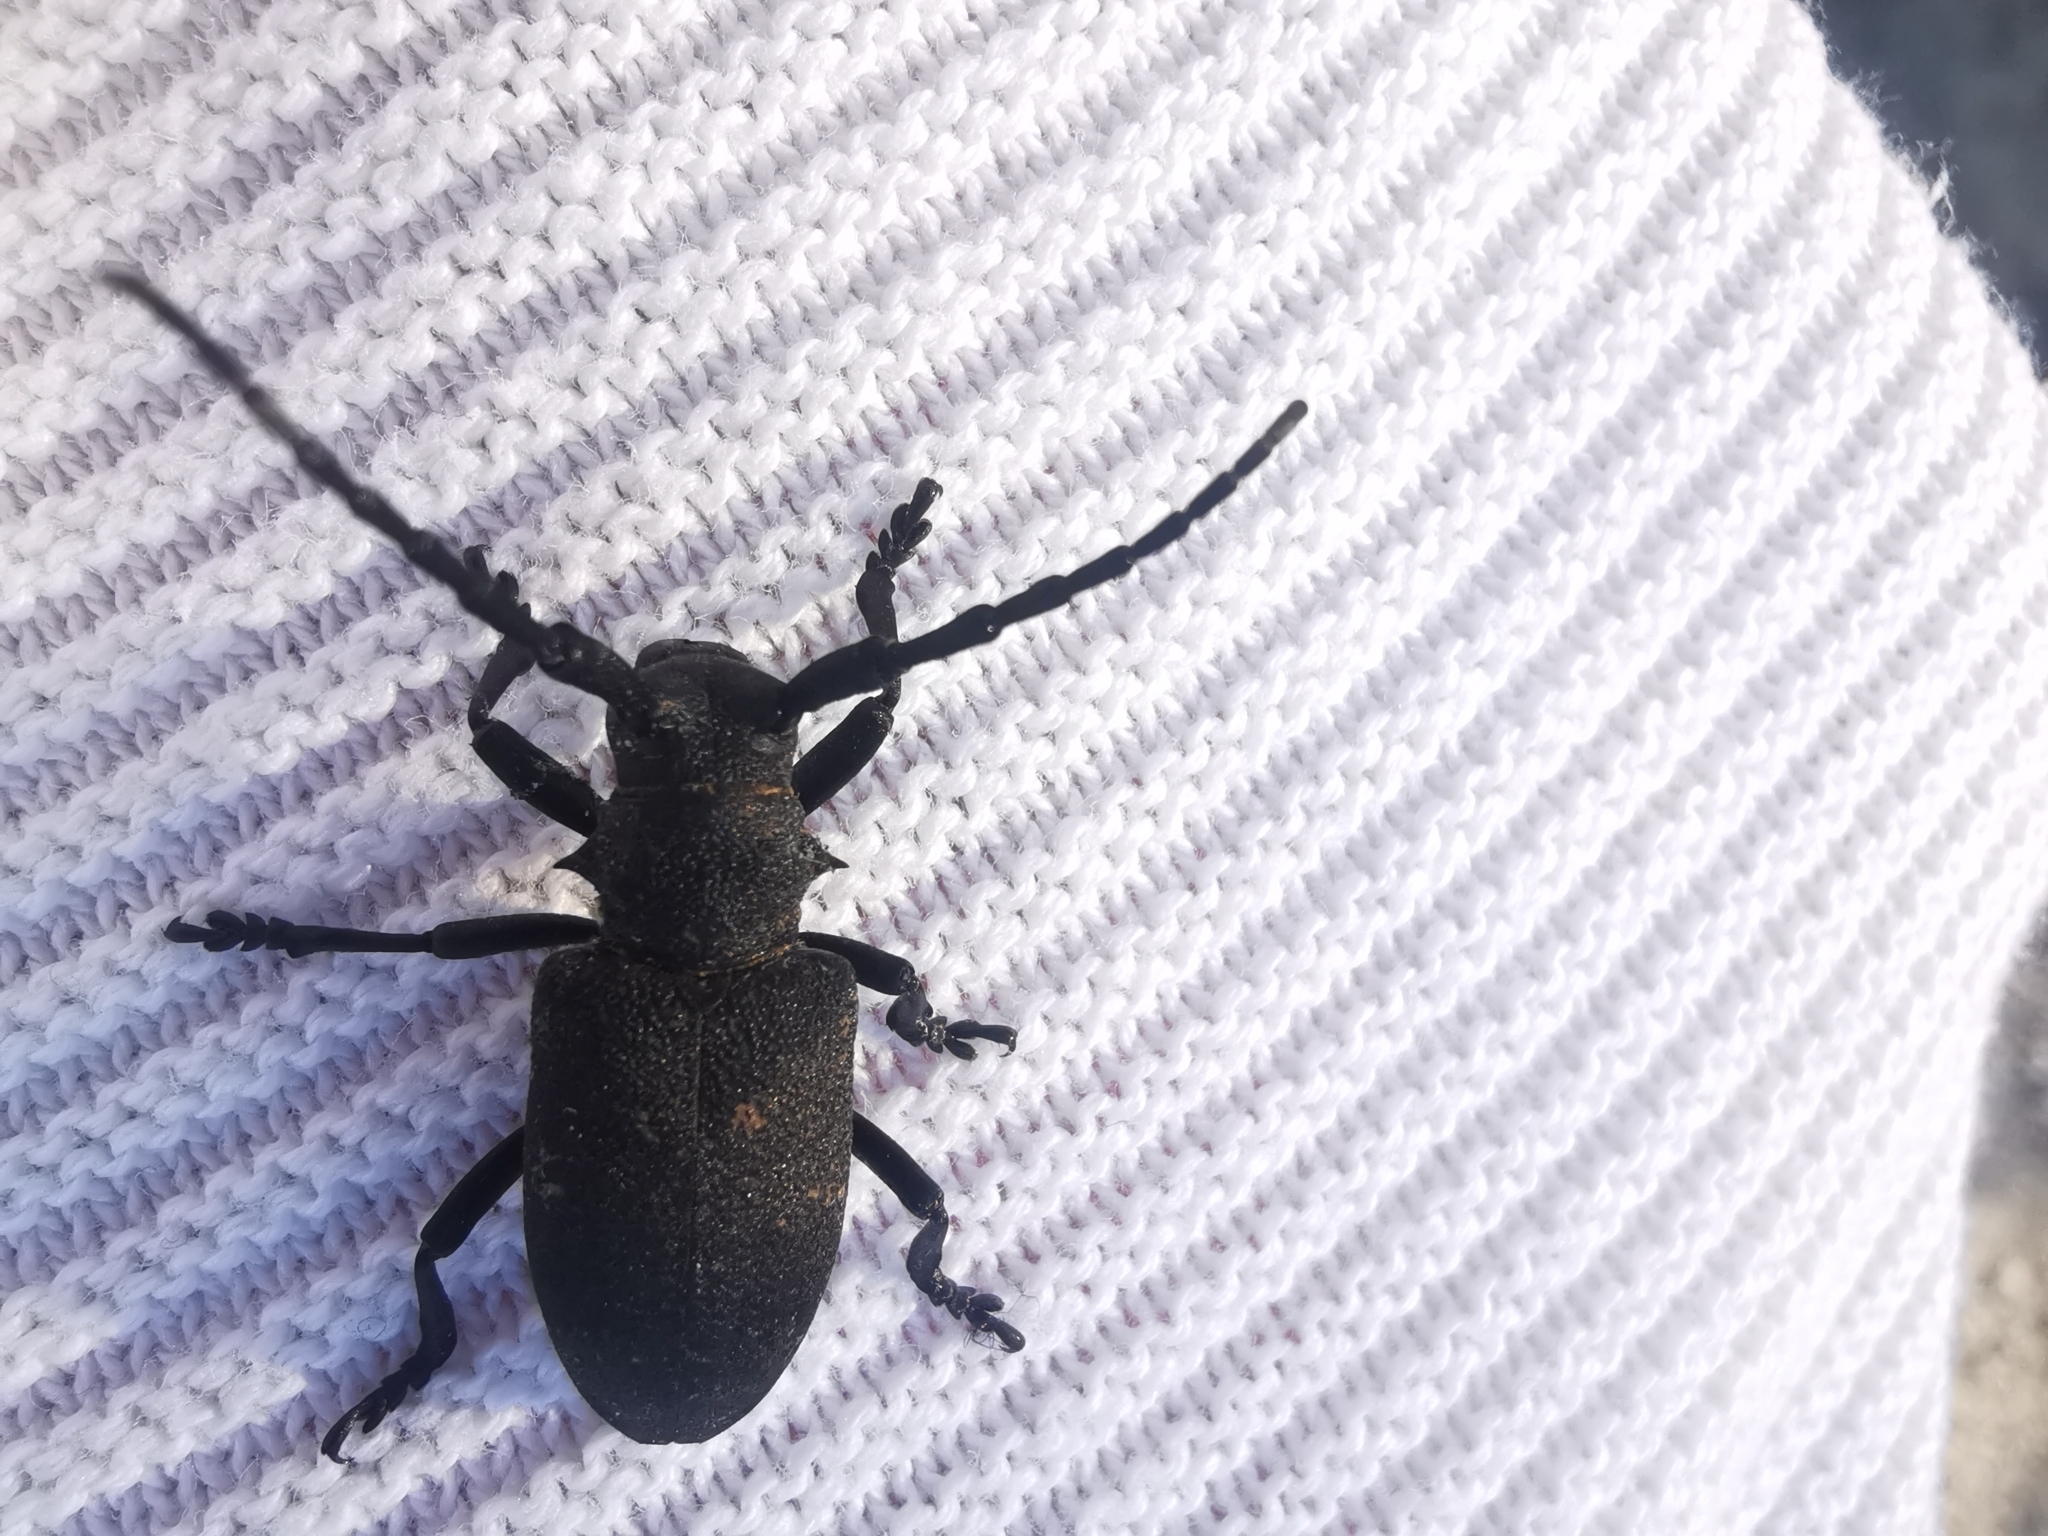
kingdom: Animalia
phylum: Arthropoda
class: Insecta
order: Coleoptera
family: Cerambycidae
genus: Lamia
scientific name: Lamia textor
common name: Weaver beetle
